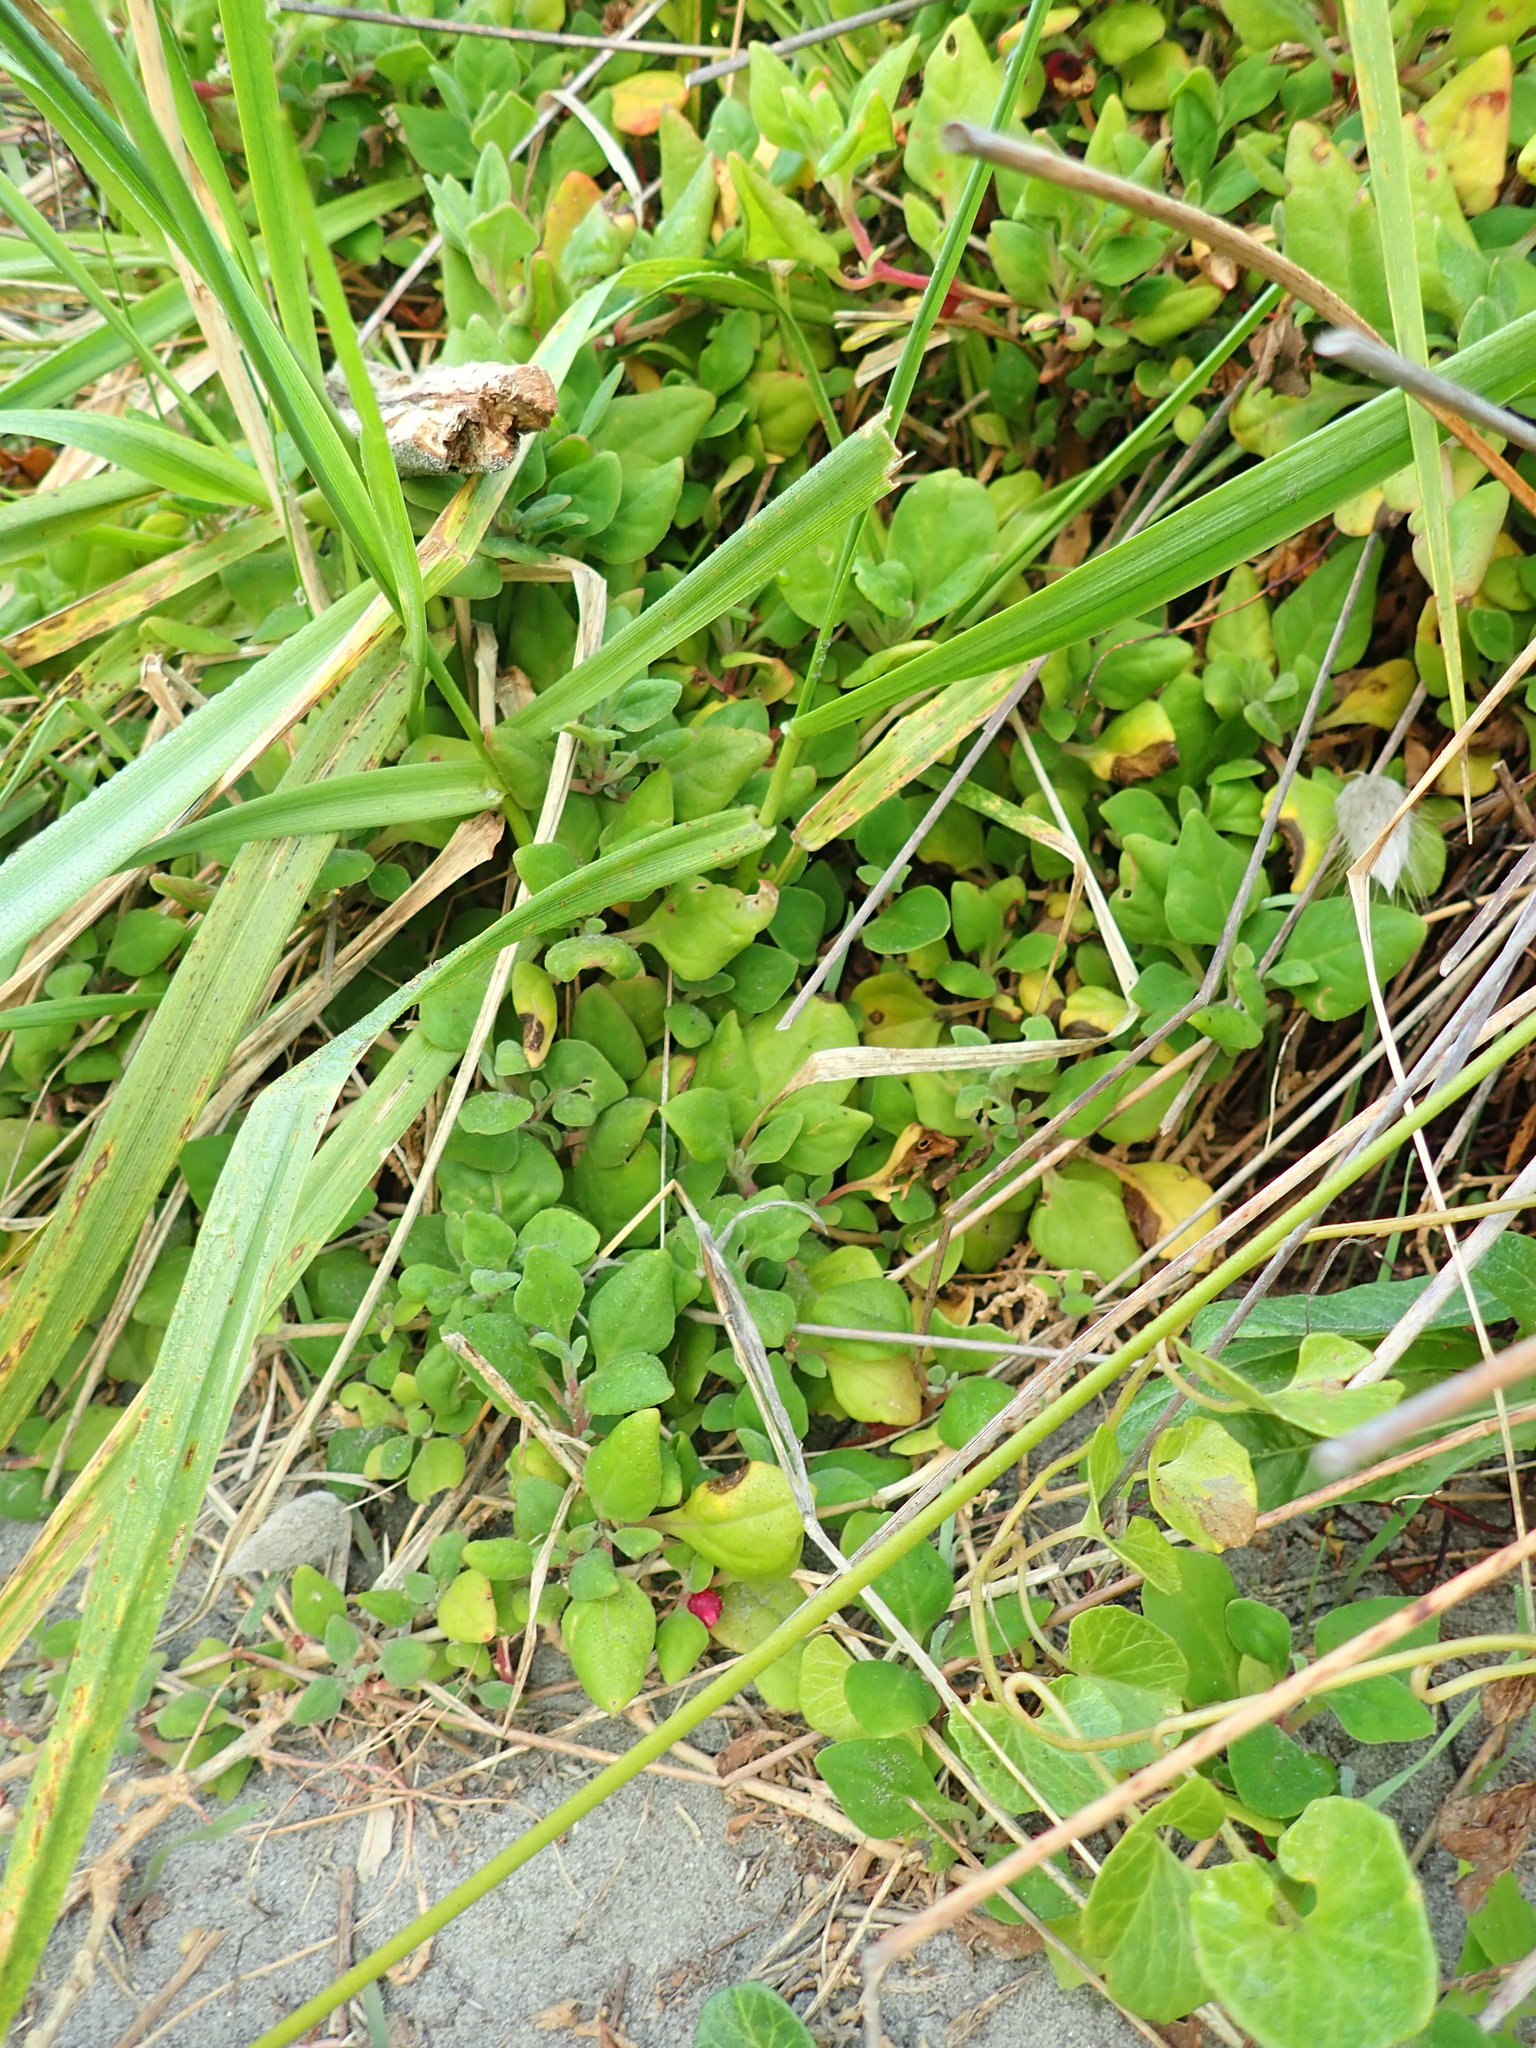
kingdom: Plantae
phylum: Tracheophyta
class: Magnoliopsida
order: Caryophyllales
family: Aizoaceae
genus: Tetragonia
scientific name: Tetragonia implexicoma
